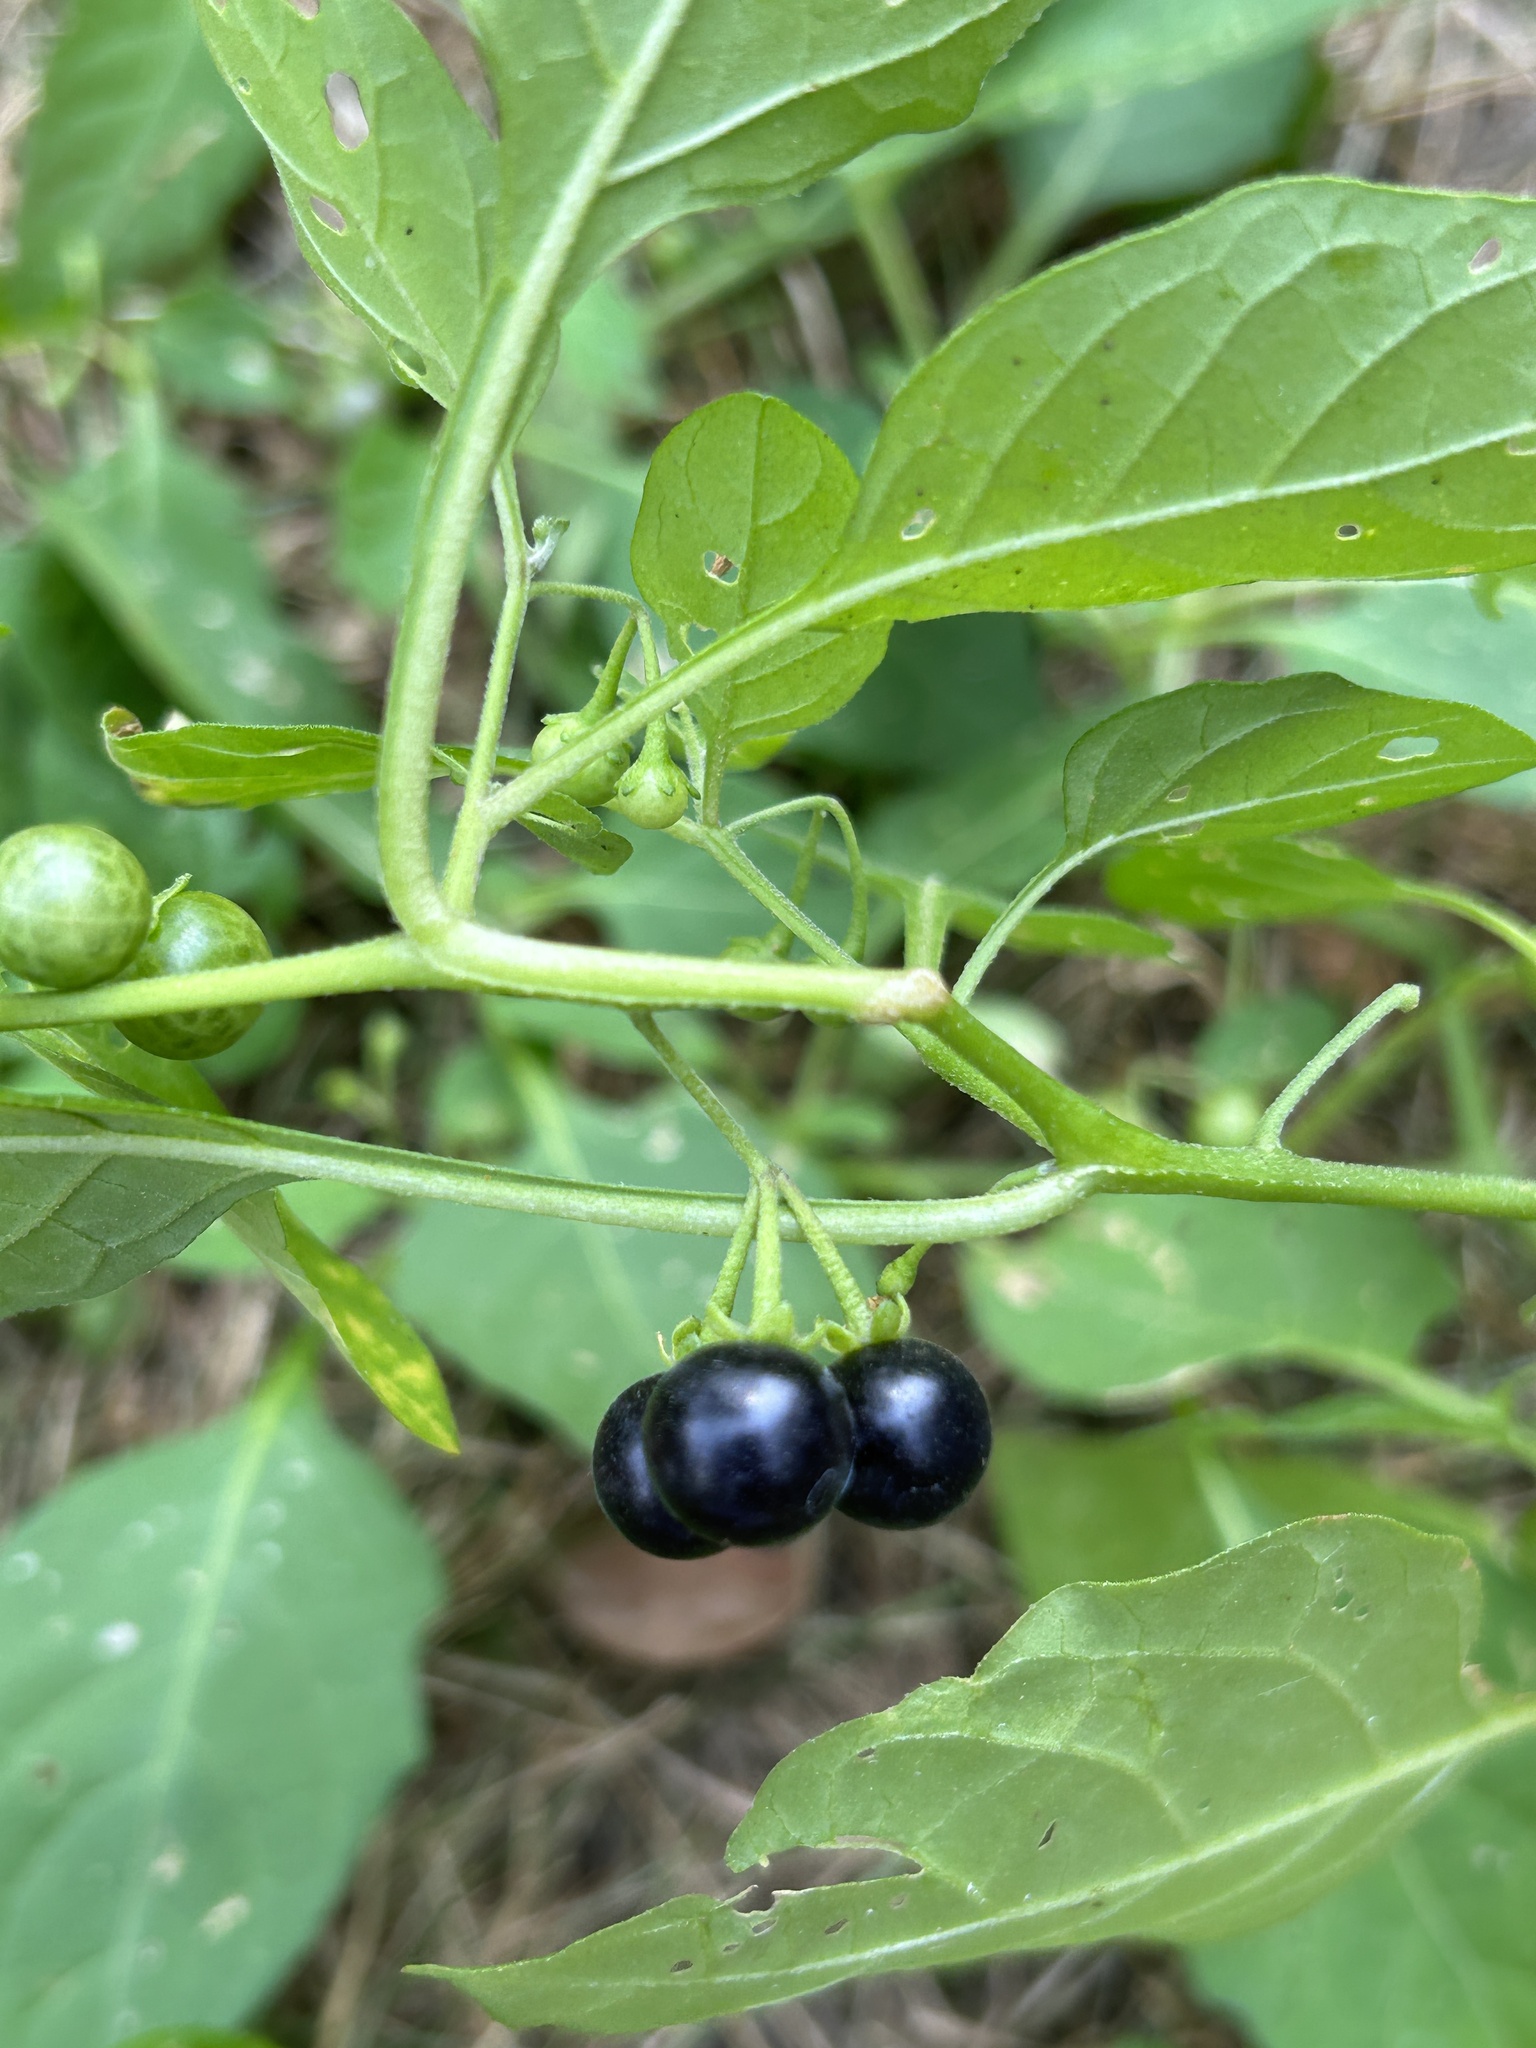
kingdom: Plantae
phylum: Tracheophyta
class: Magnoliopsida
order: Solanales
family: Solanaceae
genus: Solanum
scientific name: Solanum emulans
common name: Eastern black nightshade
